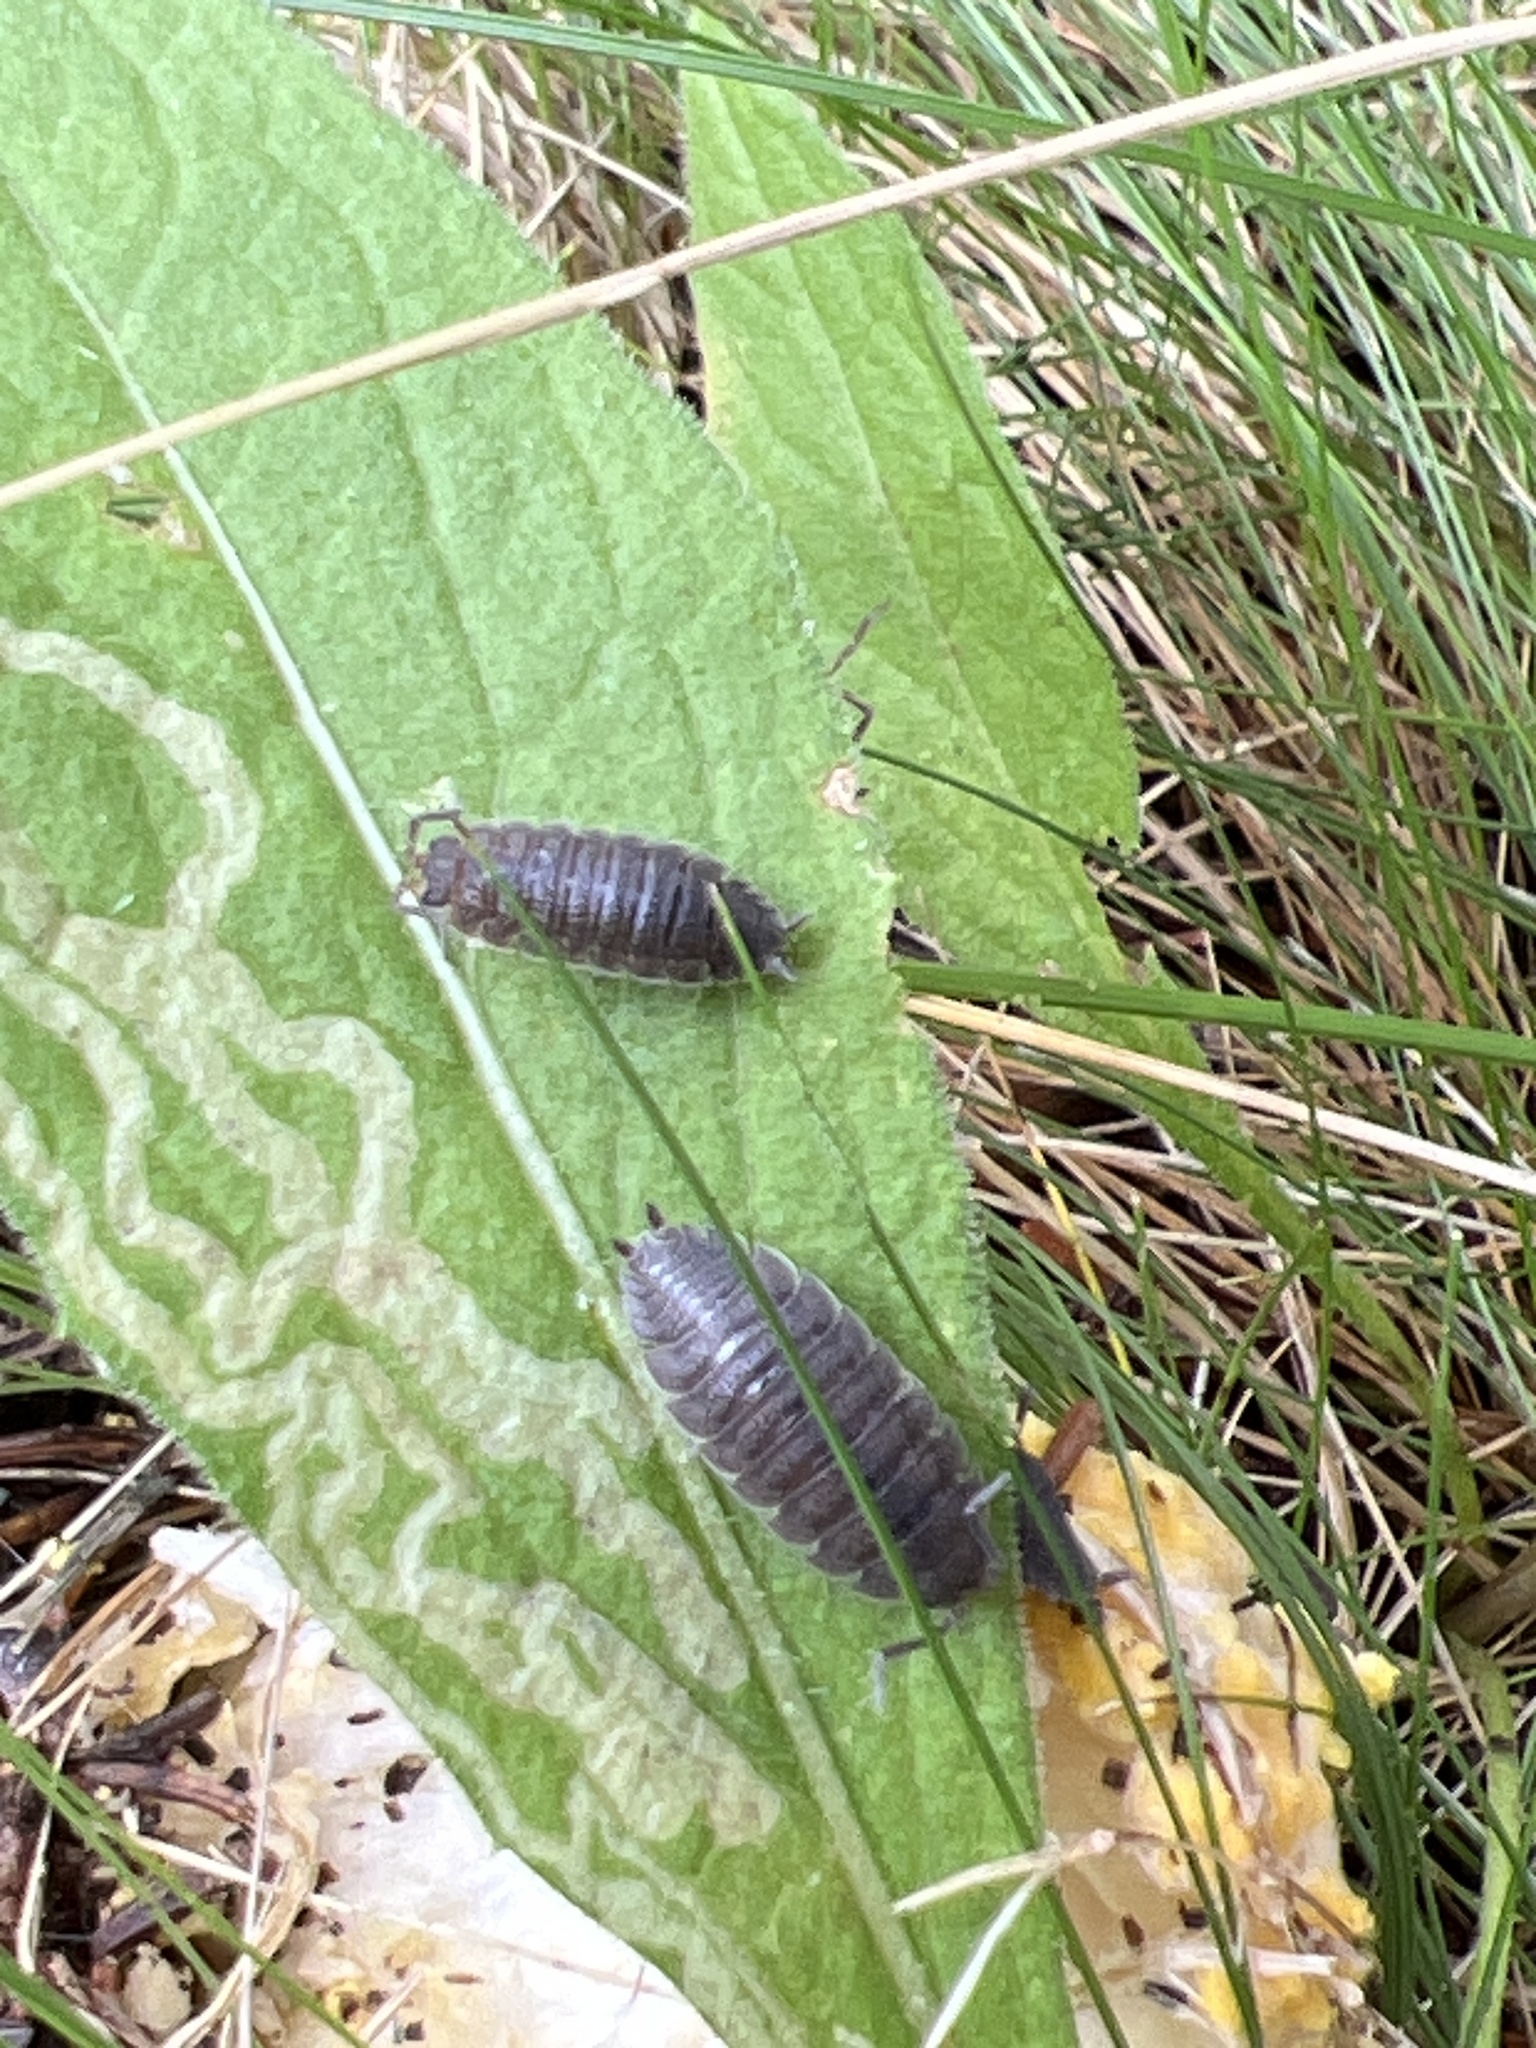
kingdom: Animalia
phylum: Arthropoda
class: Malacostraca
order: Isopoda
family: Porcellionidae
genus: Porcellio
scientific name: Porcellio scaber
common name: Common rough woodlouse
